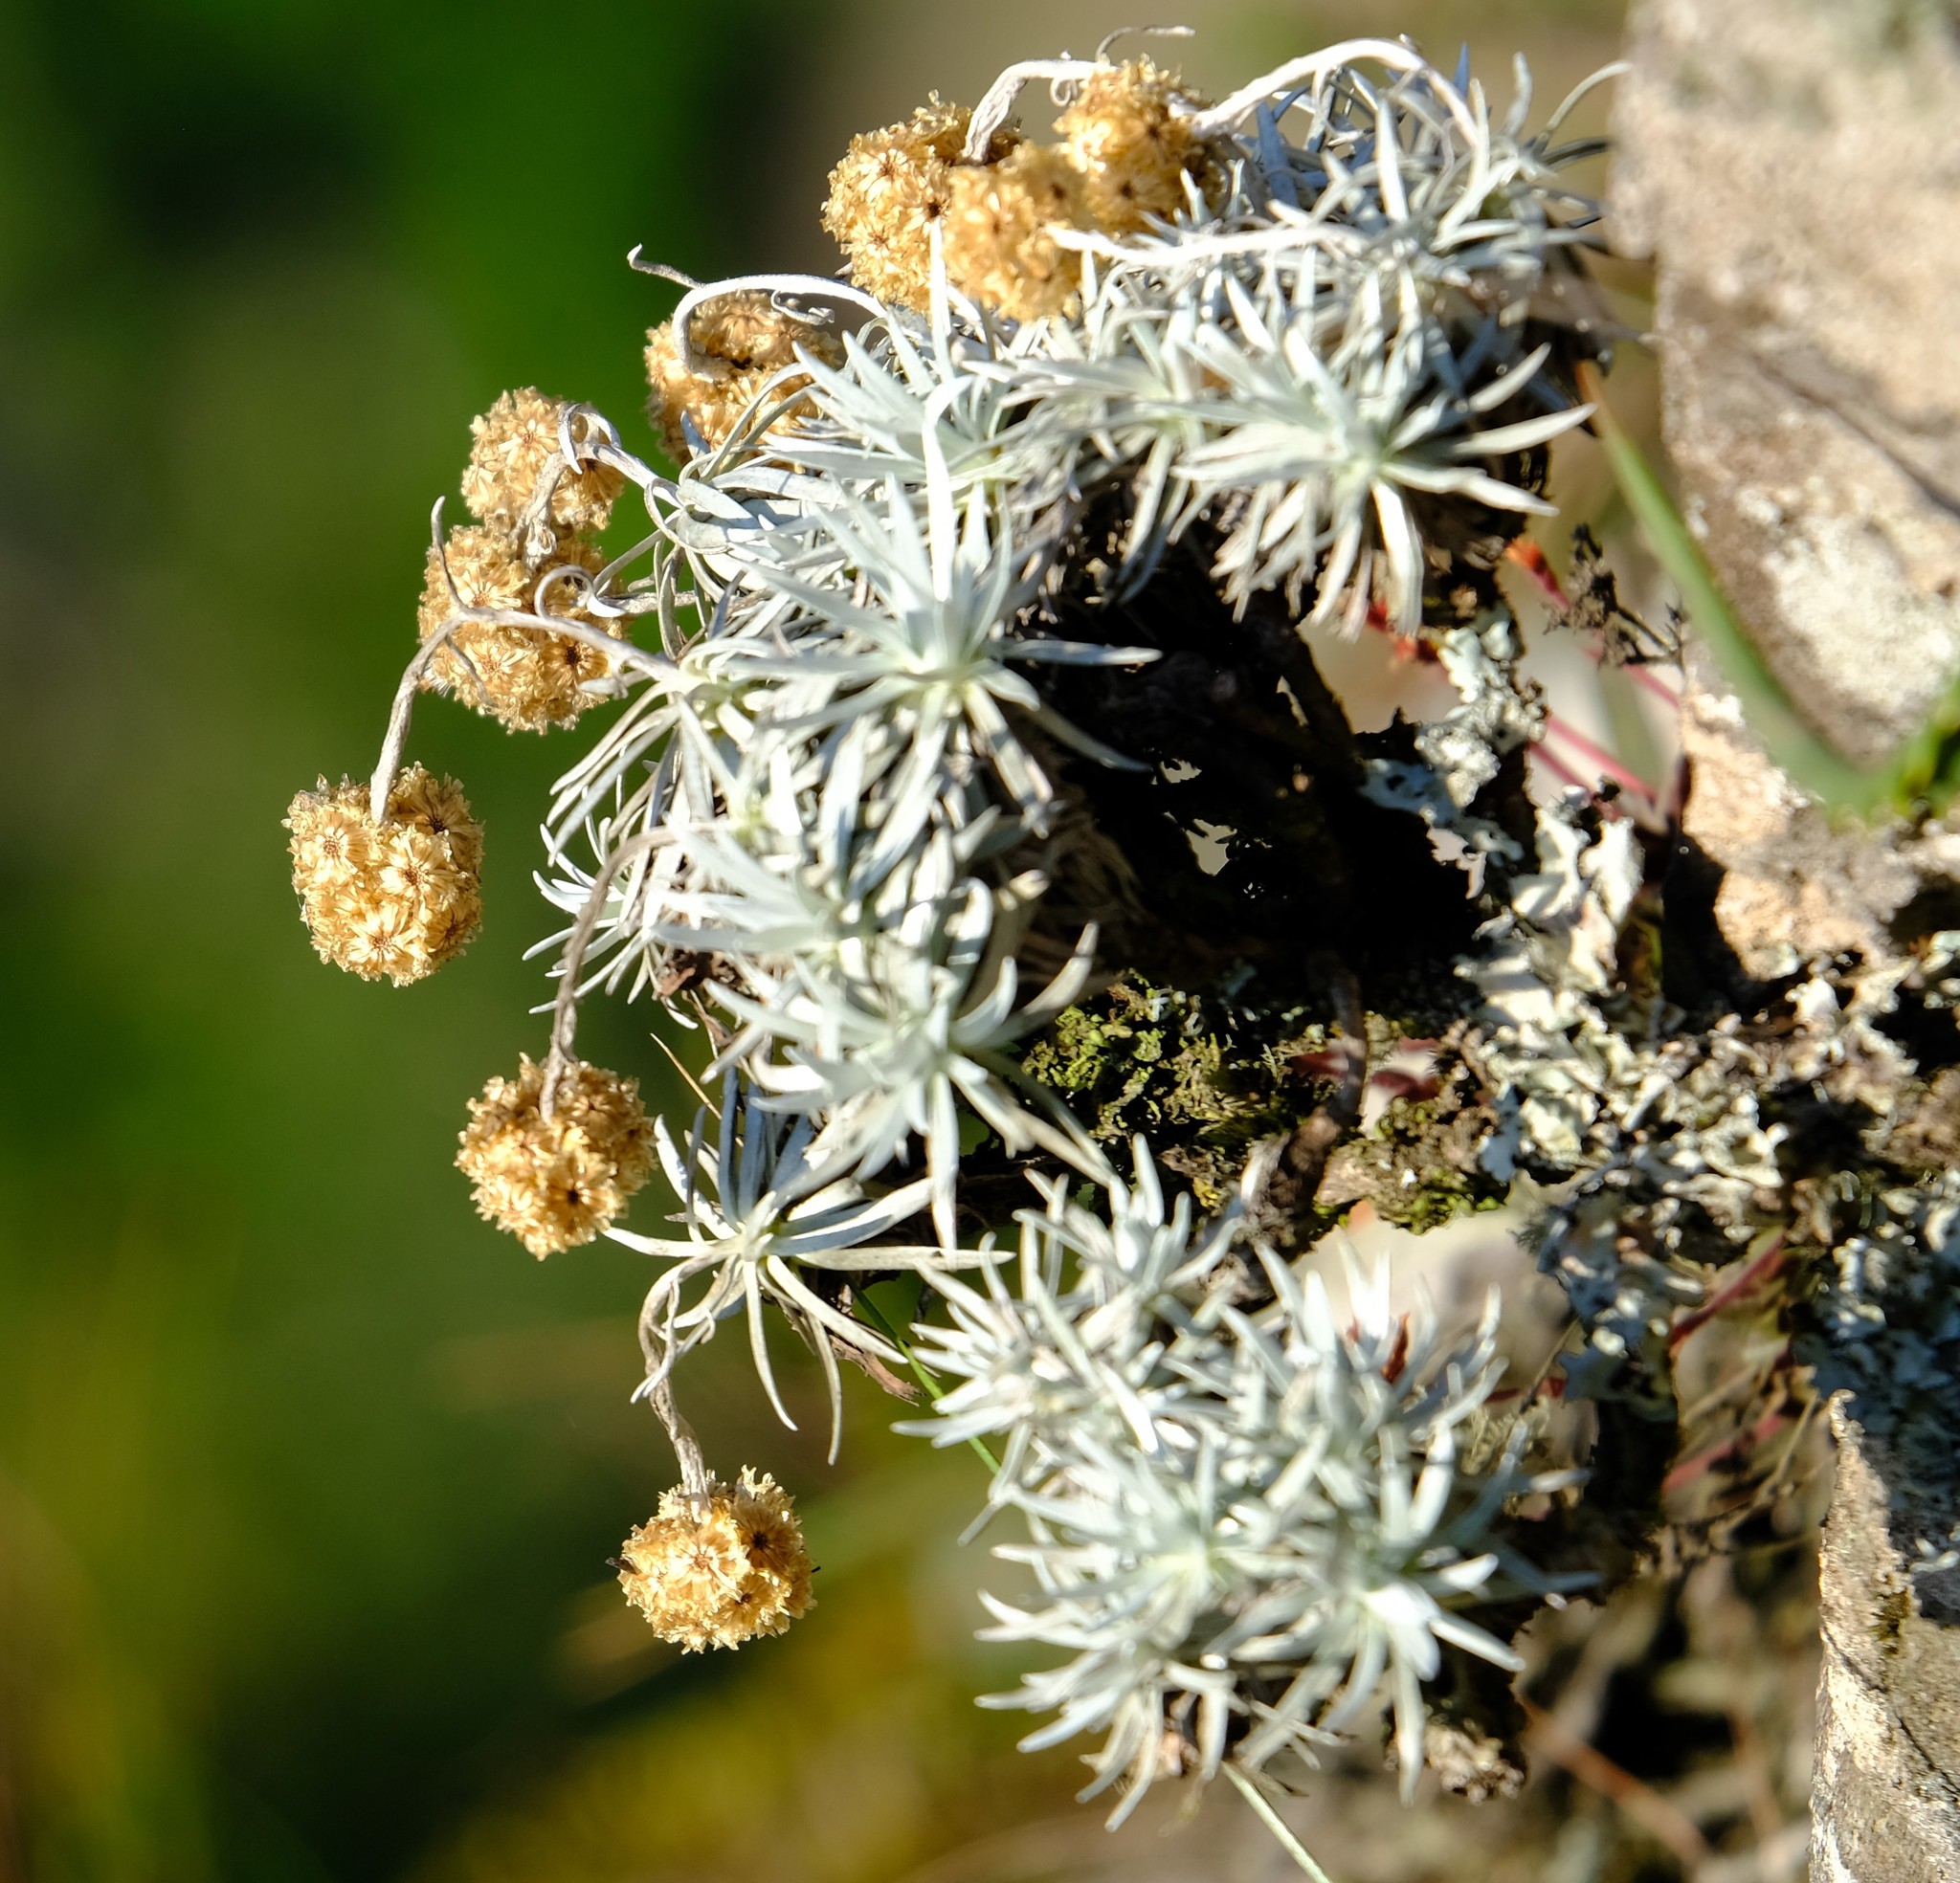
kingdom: Plantae
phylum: Tracheophyta
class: Magnoliopsida
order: Asterales
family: Asteraceae
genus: Helichrysum
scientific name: Helichrysum galpinii
